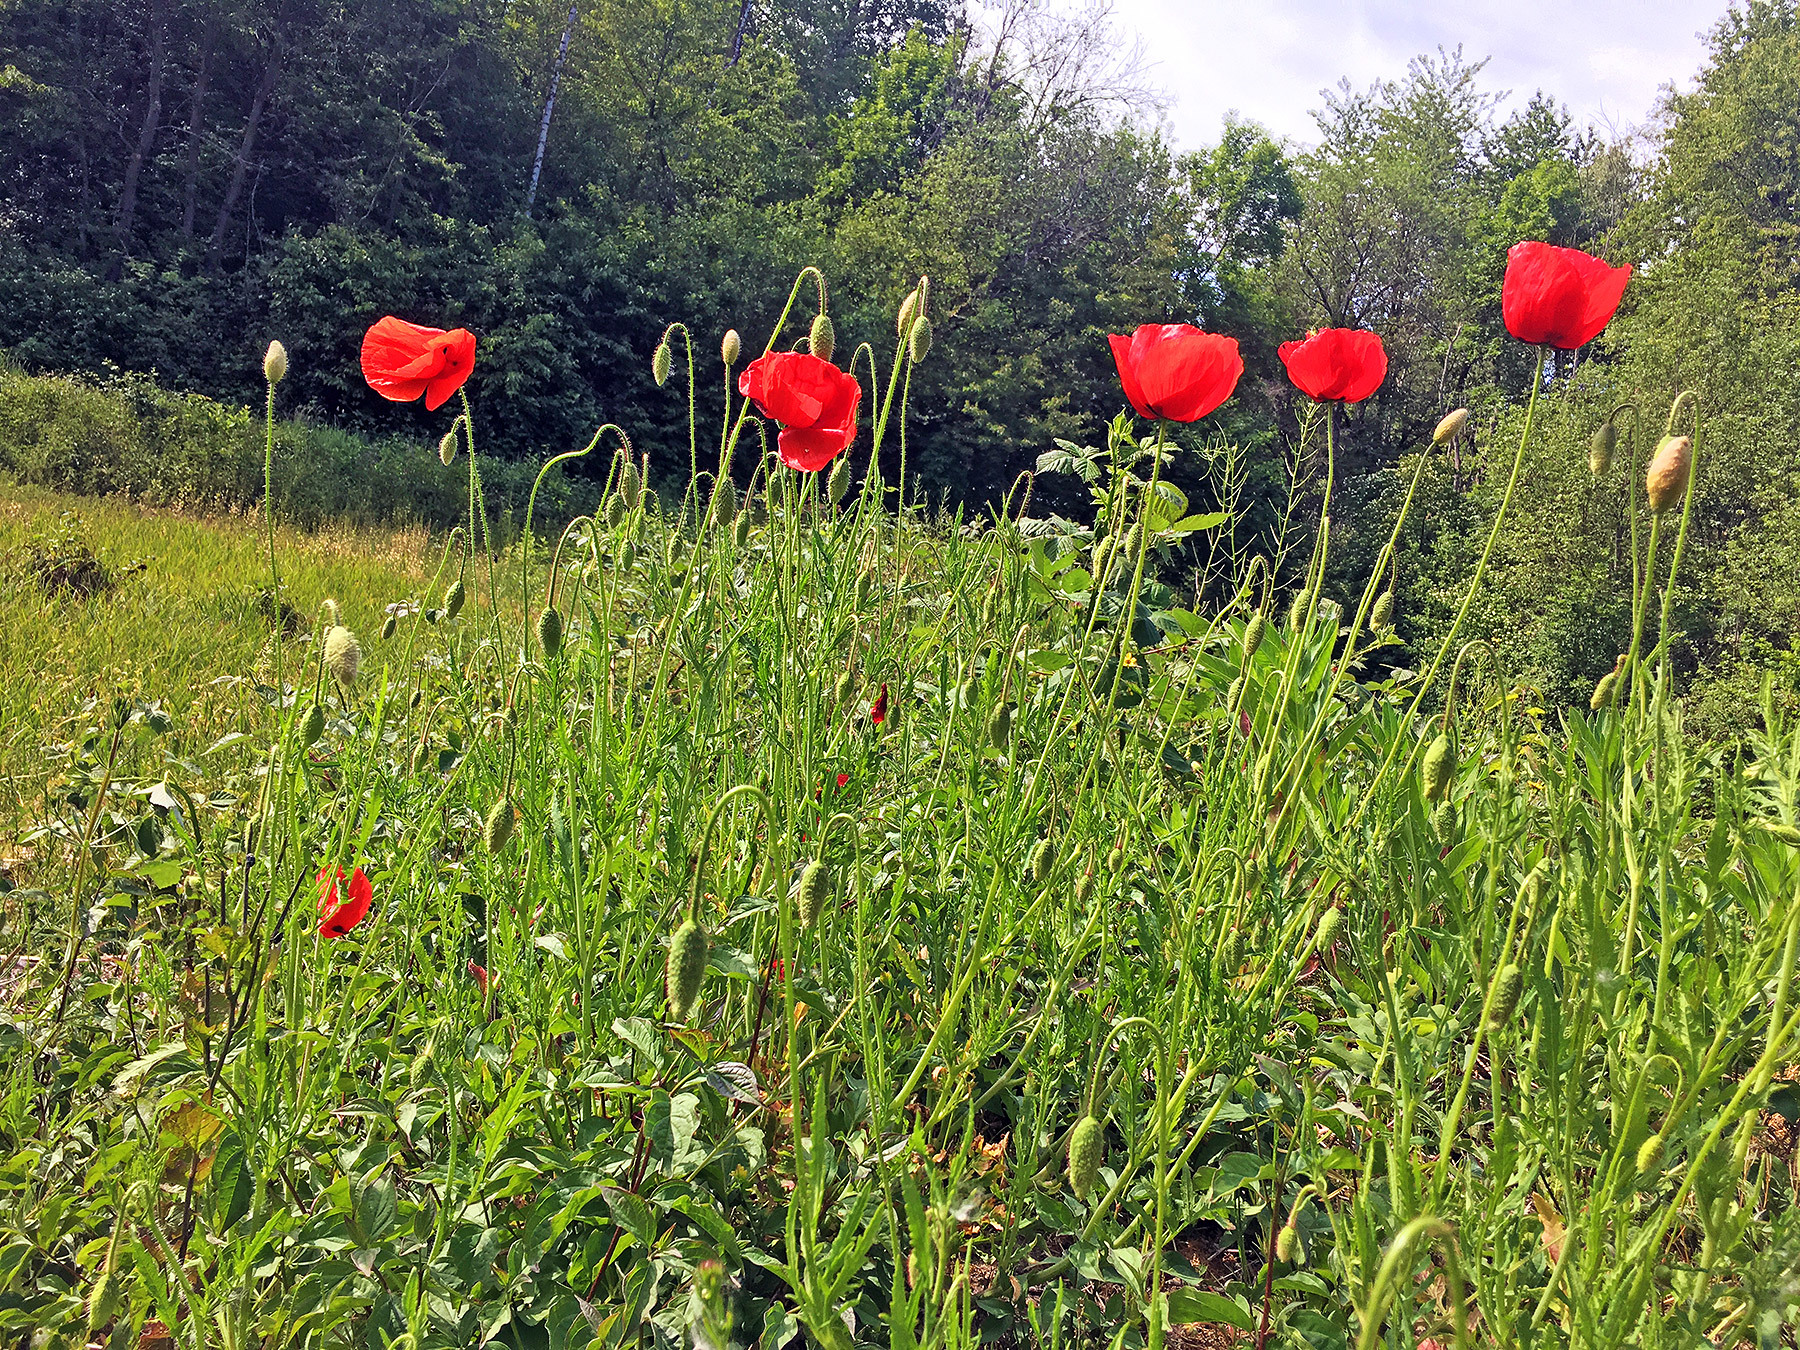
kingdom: Plantae
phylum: Tracheophyta
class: Magnoliopsida
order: Ranunculales
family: Papaveraceae
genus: Papaver
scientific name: Papaver rhoeas
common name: Corn poppy
